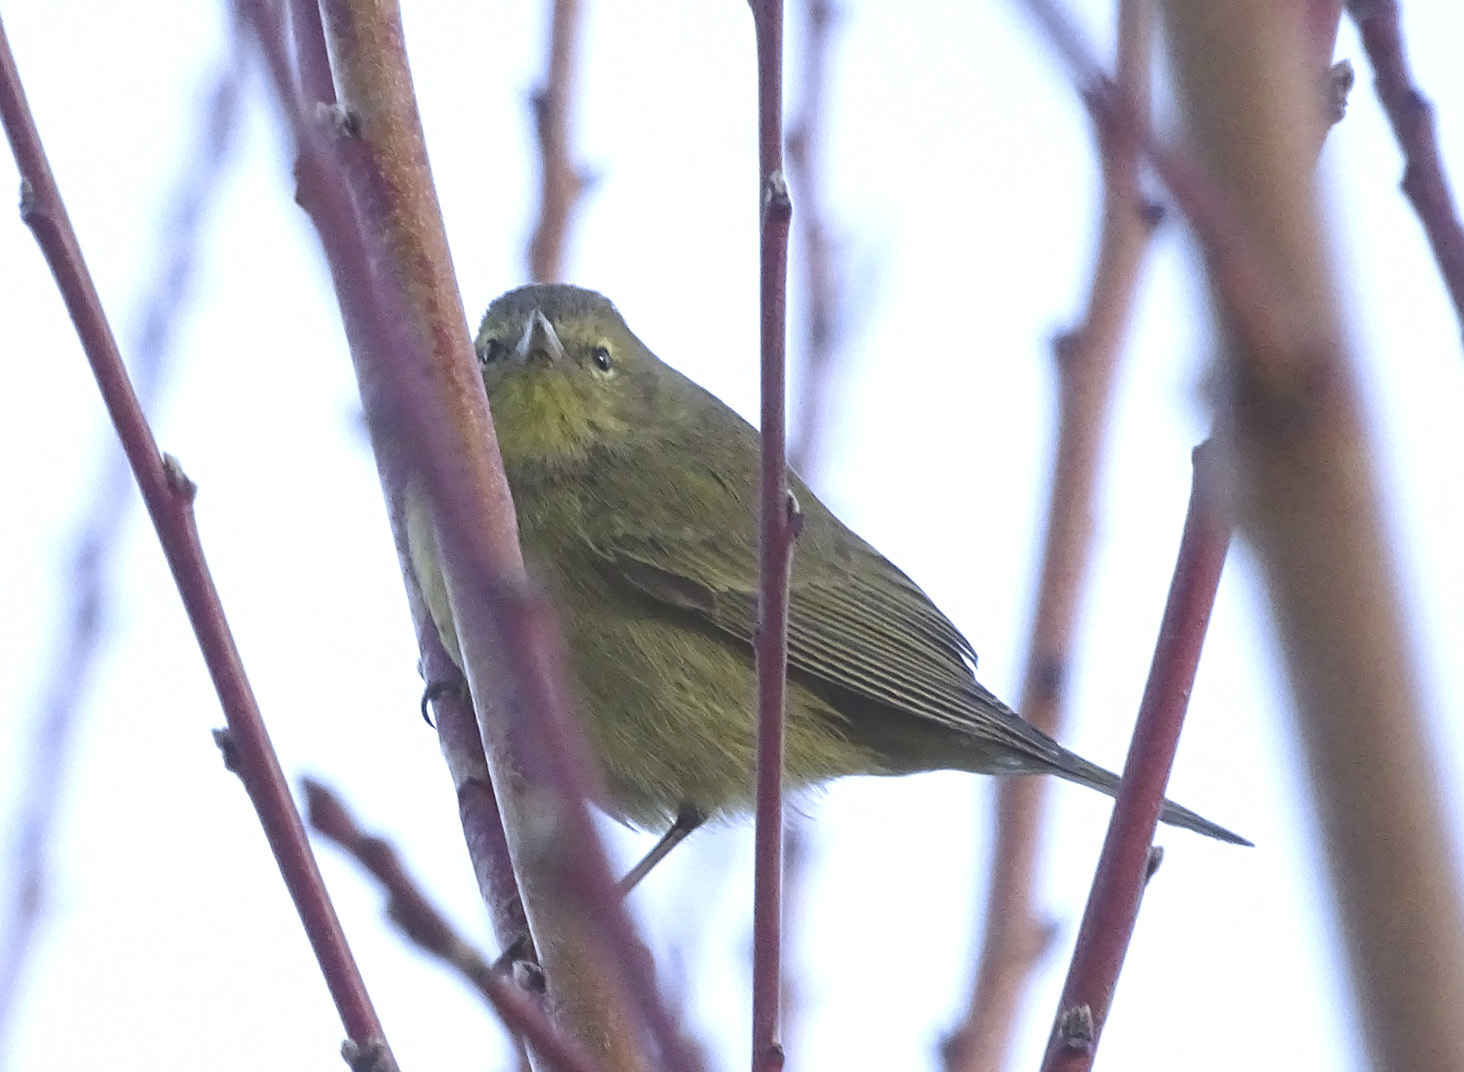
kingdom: Animalia
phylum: Chordata
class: Aves
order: Passeriformes
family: Parulidae
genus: Leiothlypis
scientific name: Leiothlypis celata
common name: Orange-crowned warbler
